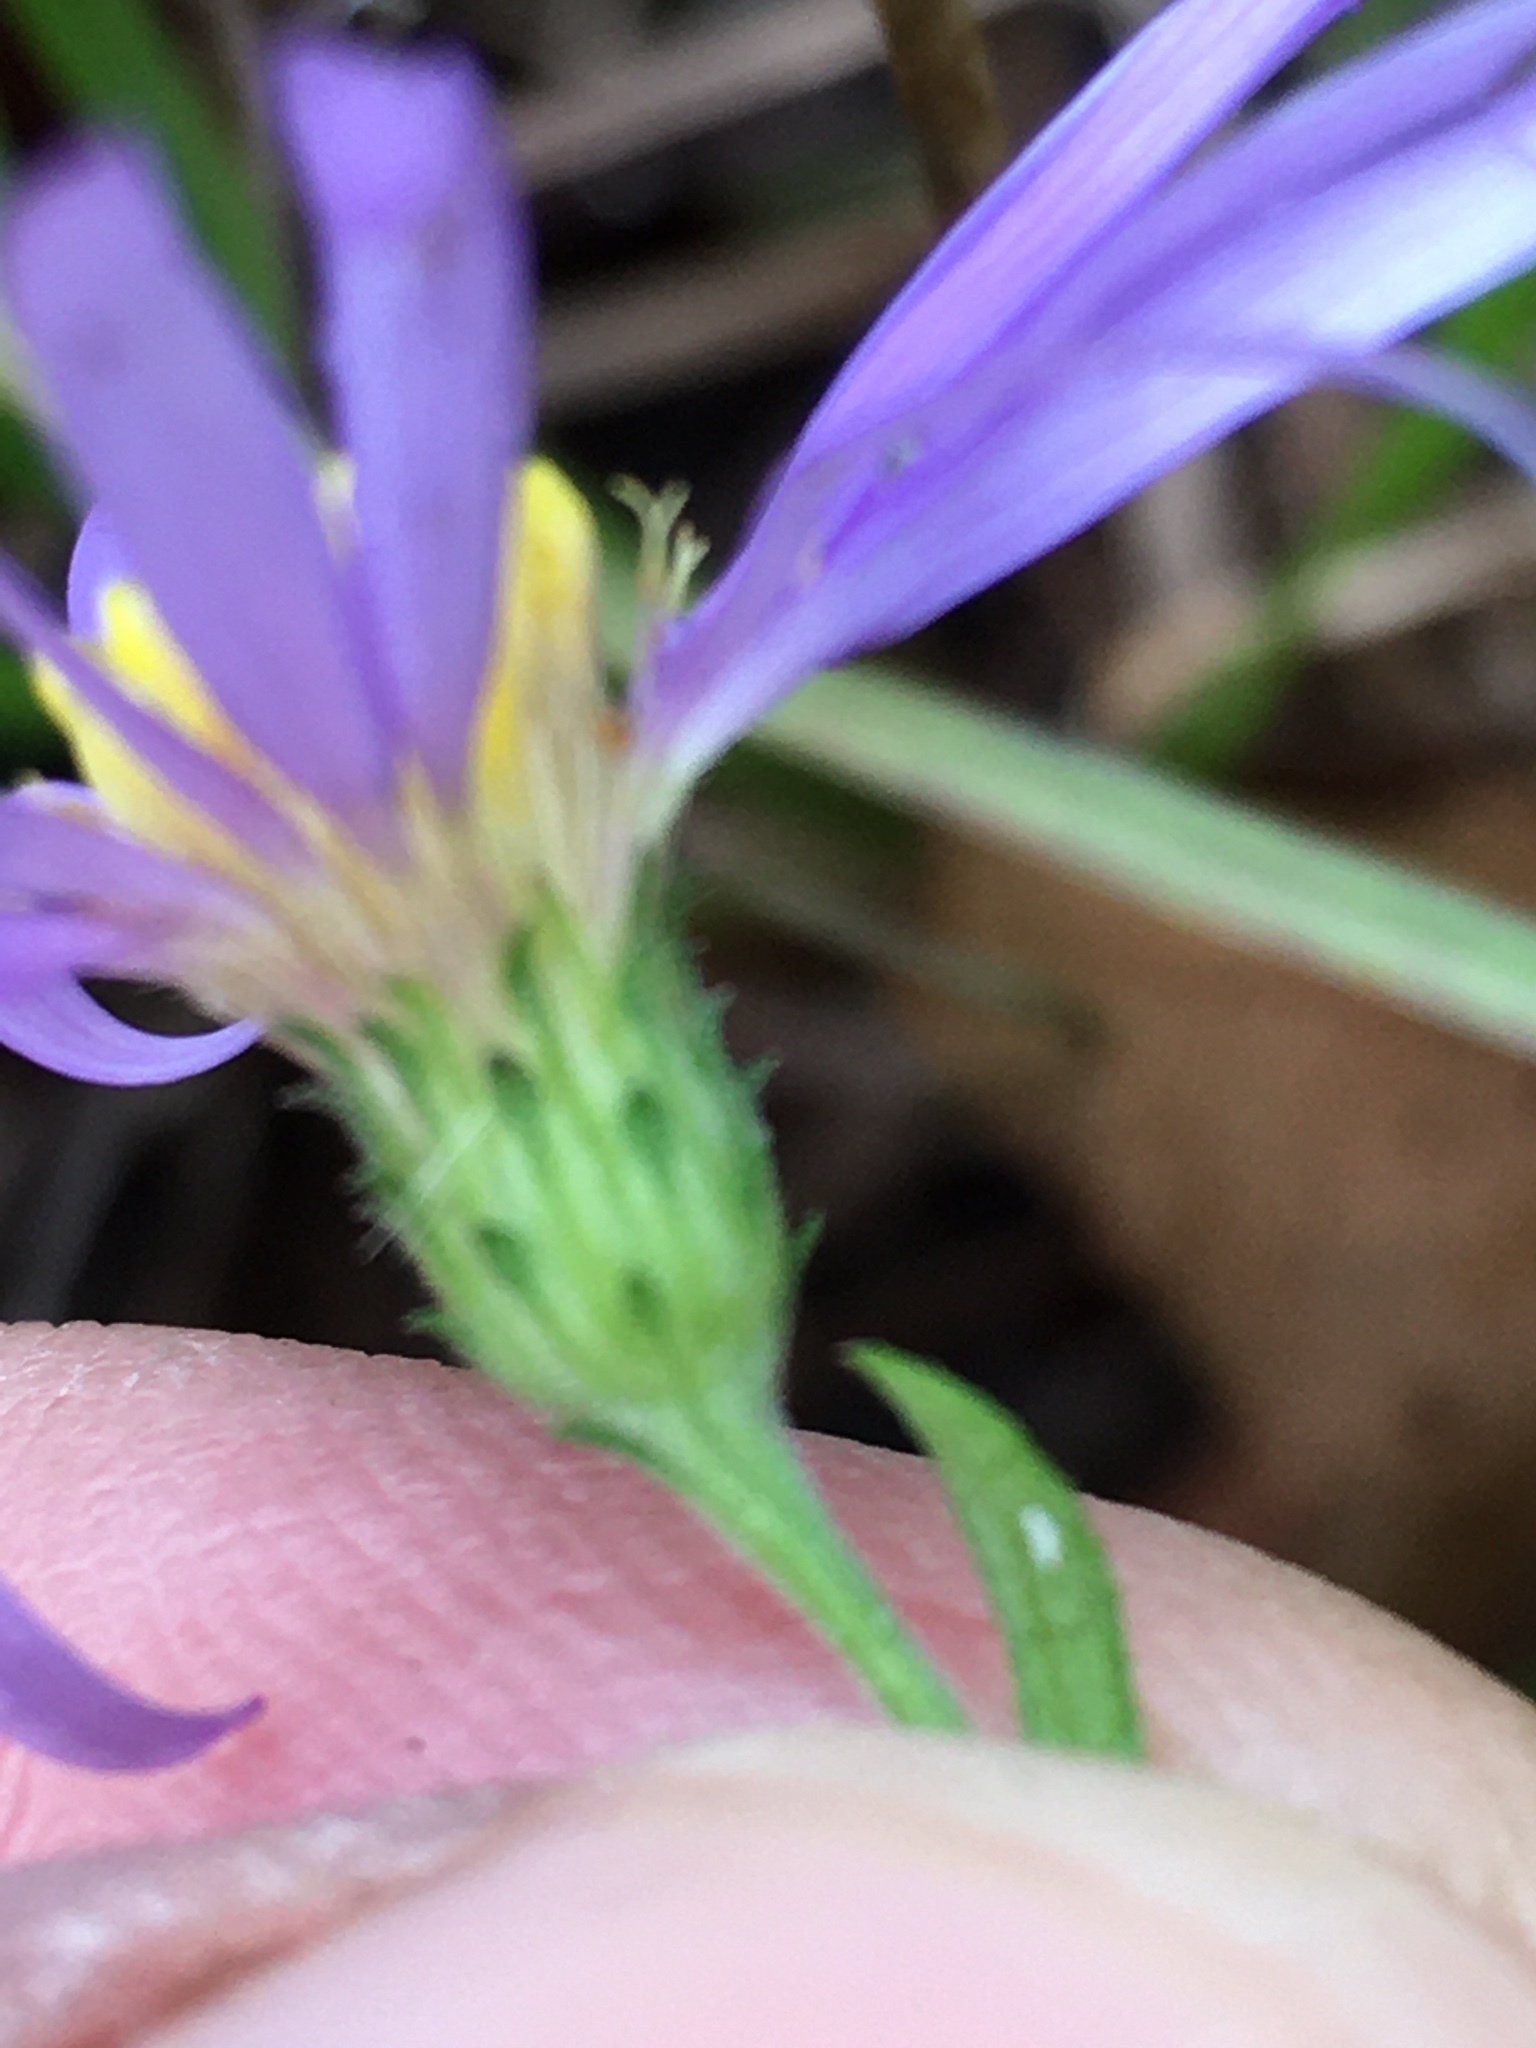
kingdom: Plantae
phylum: Tracheophyta
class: Magnoliopsida
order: Asterales
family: Asteraceae
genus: Symphyotrichum
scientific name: Symphyotrichum patens
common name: Late purple aster
